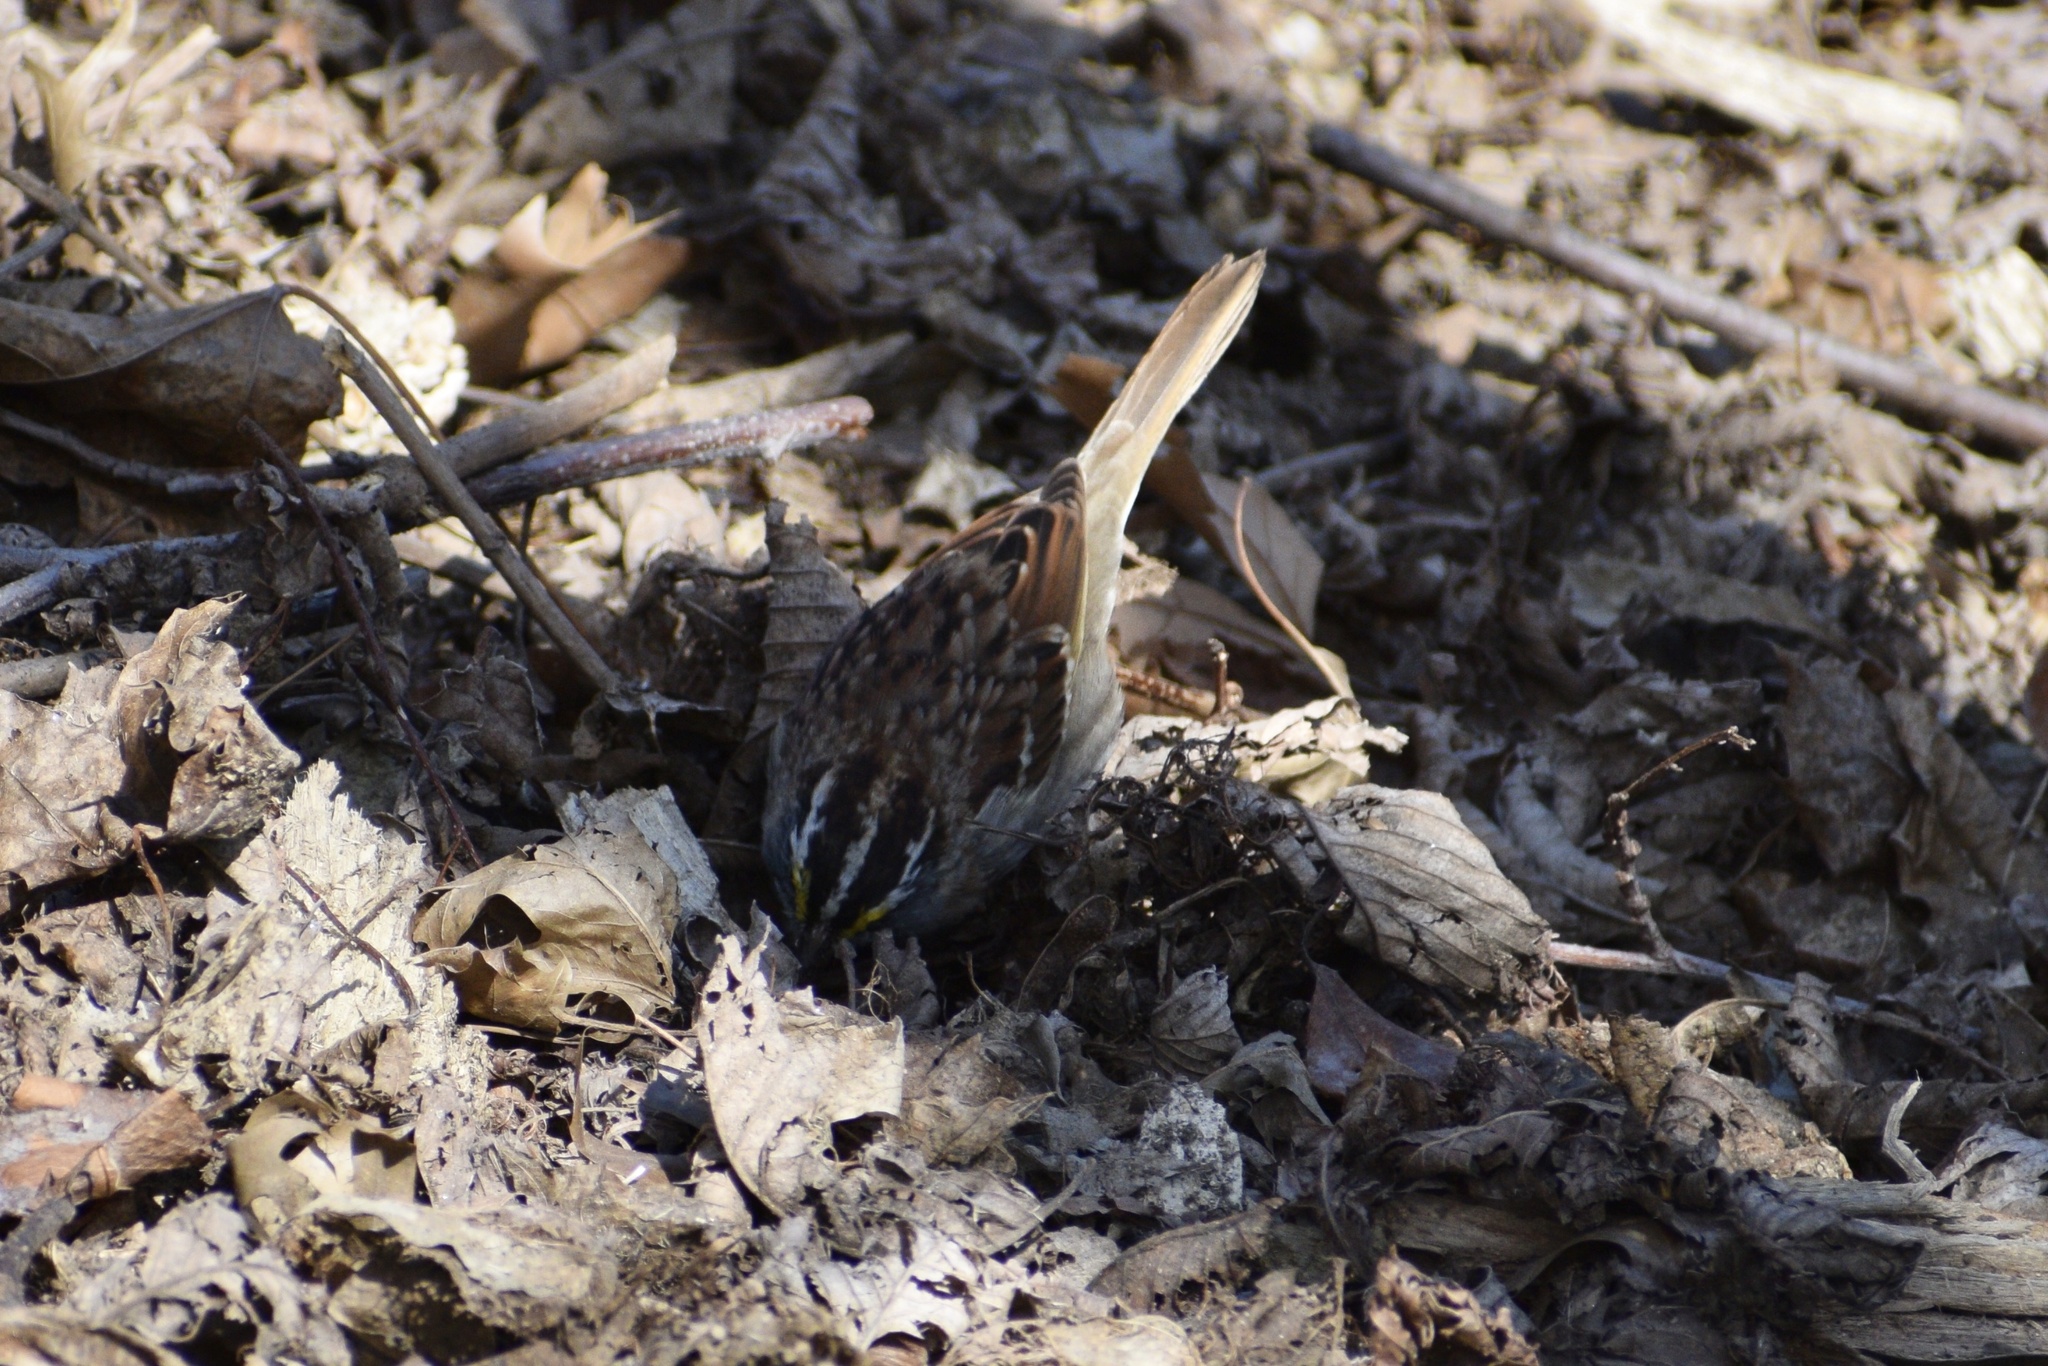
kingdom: Animalia
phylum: Chordata
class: Aves
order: Passeriformes
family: Passerellidae
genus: Zonotrichia
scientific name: Zonotrichia albicollis
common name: White-throated sparrow
